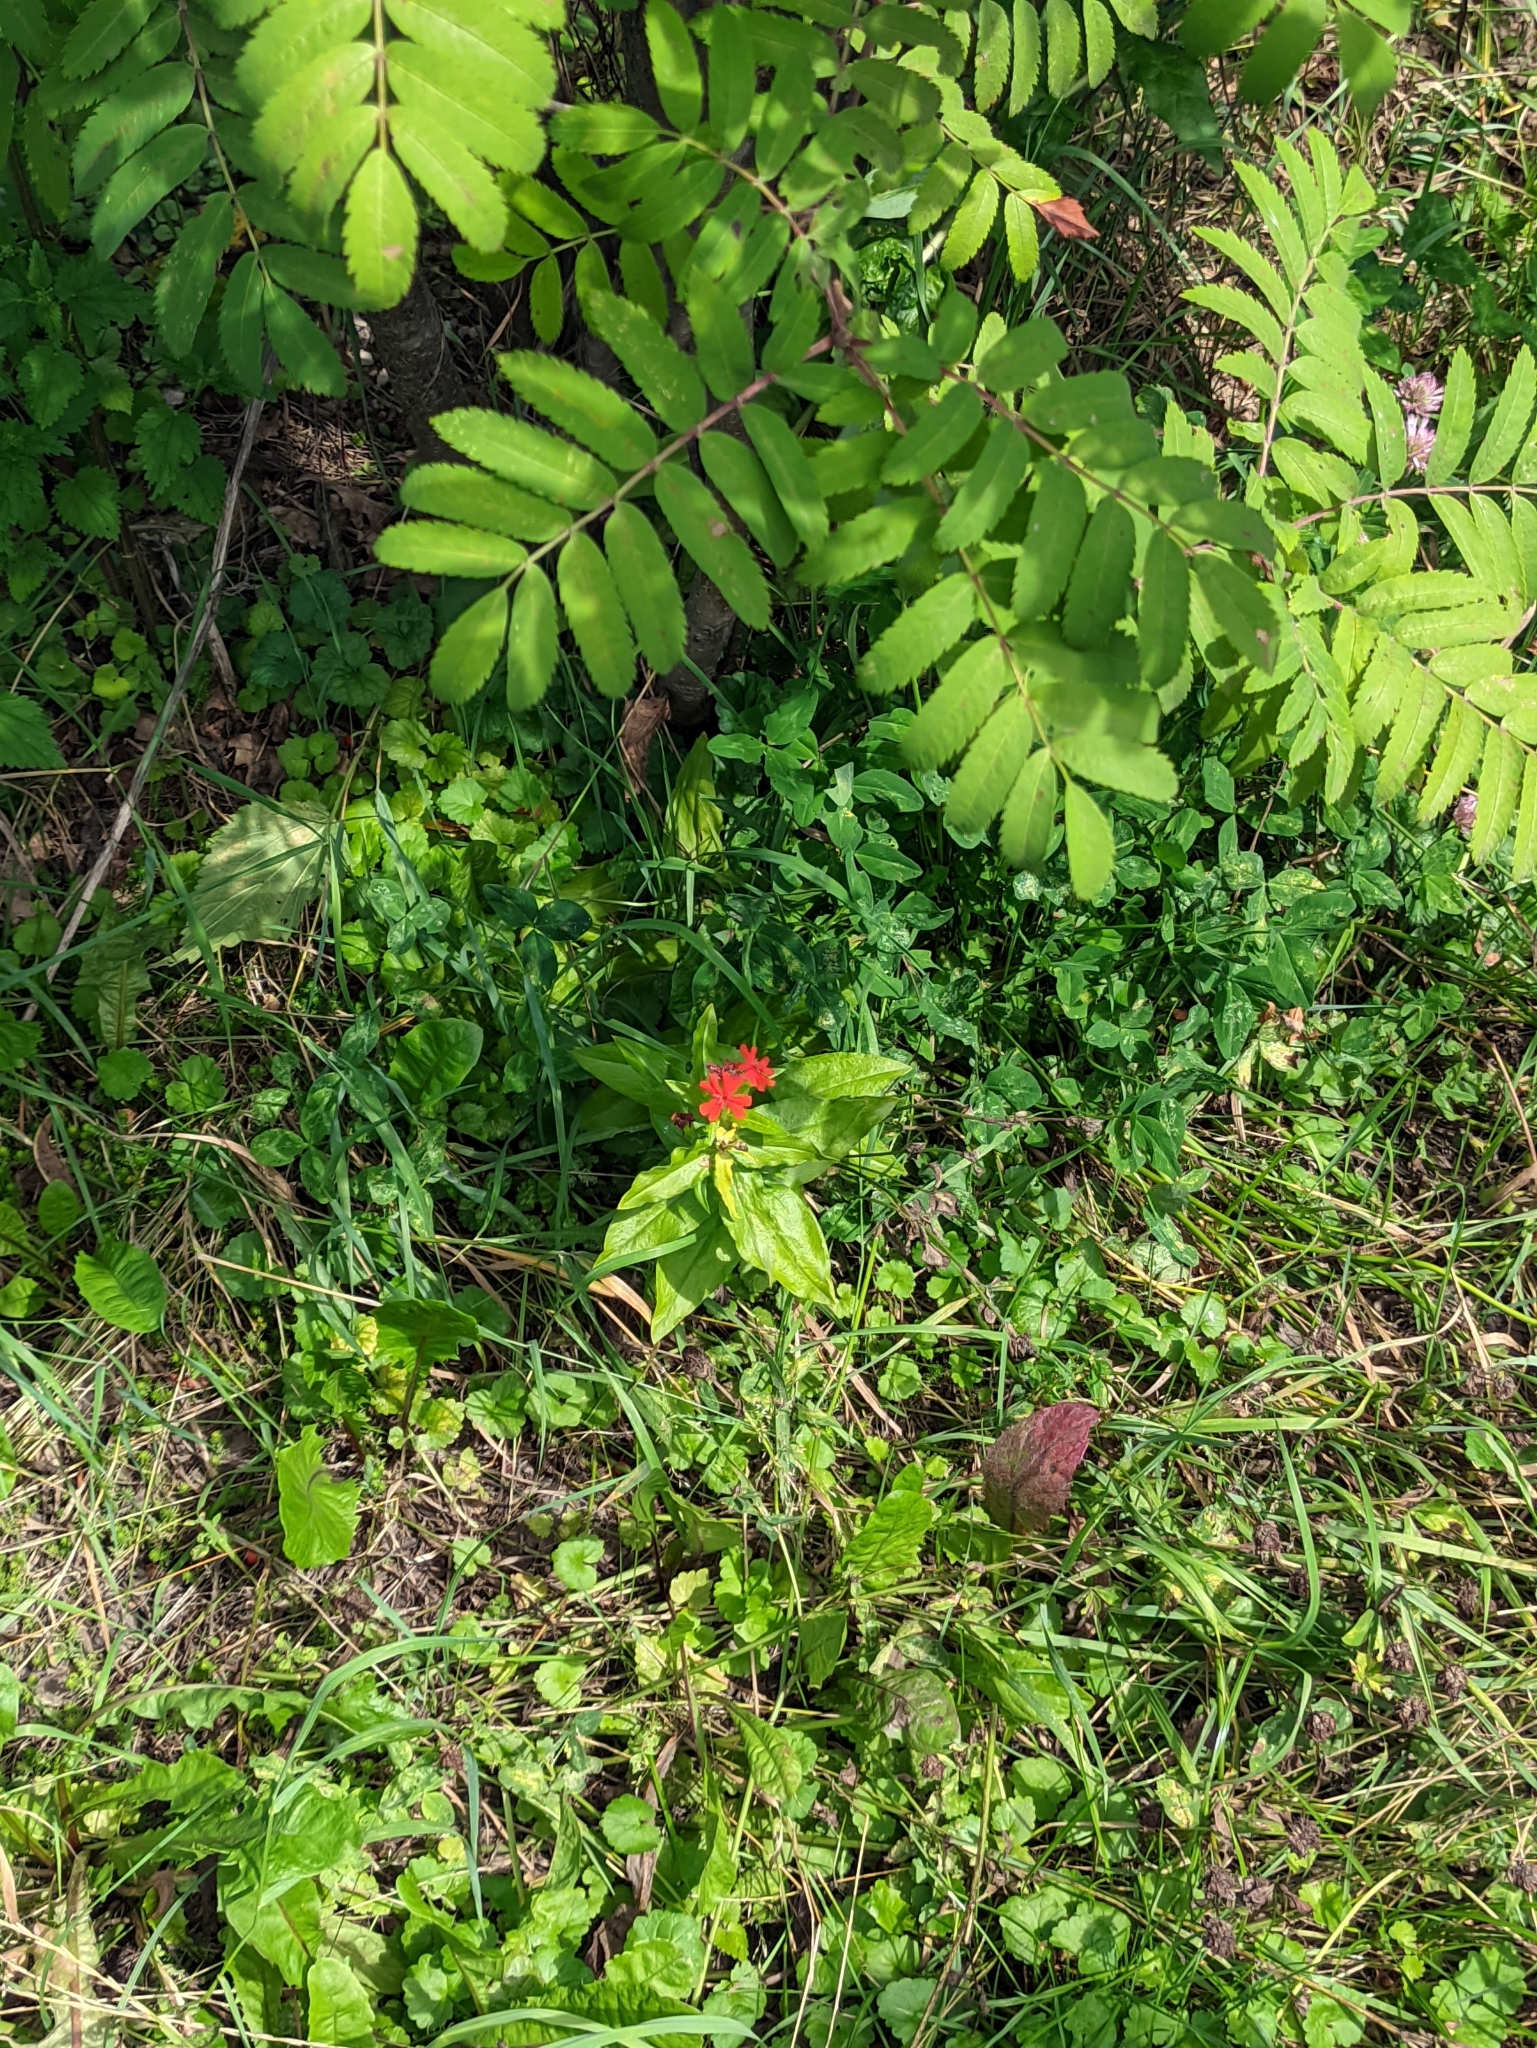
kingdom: Plantae
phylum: Tracheophyta
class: Magnoliopsida
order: Caryophyllales
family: Caryophyllaceae
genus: Silene
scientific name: Silene chalcedonica
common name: Maltese-cross
